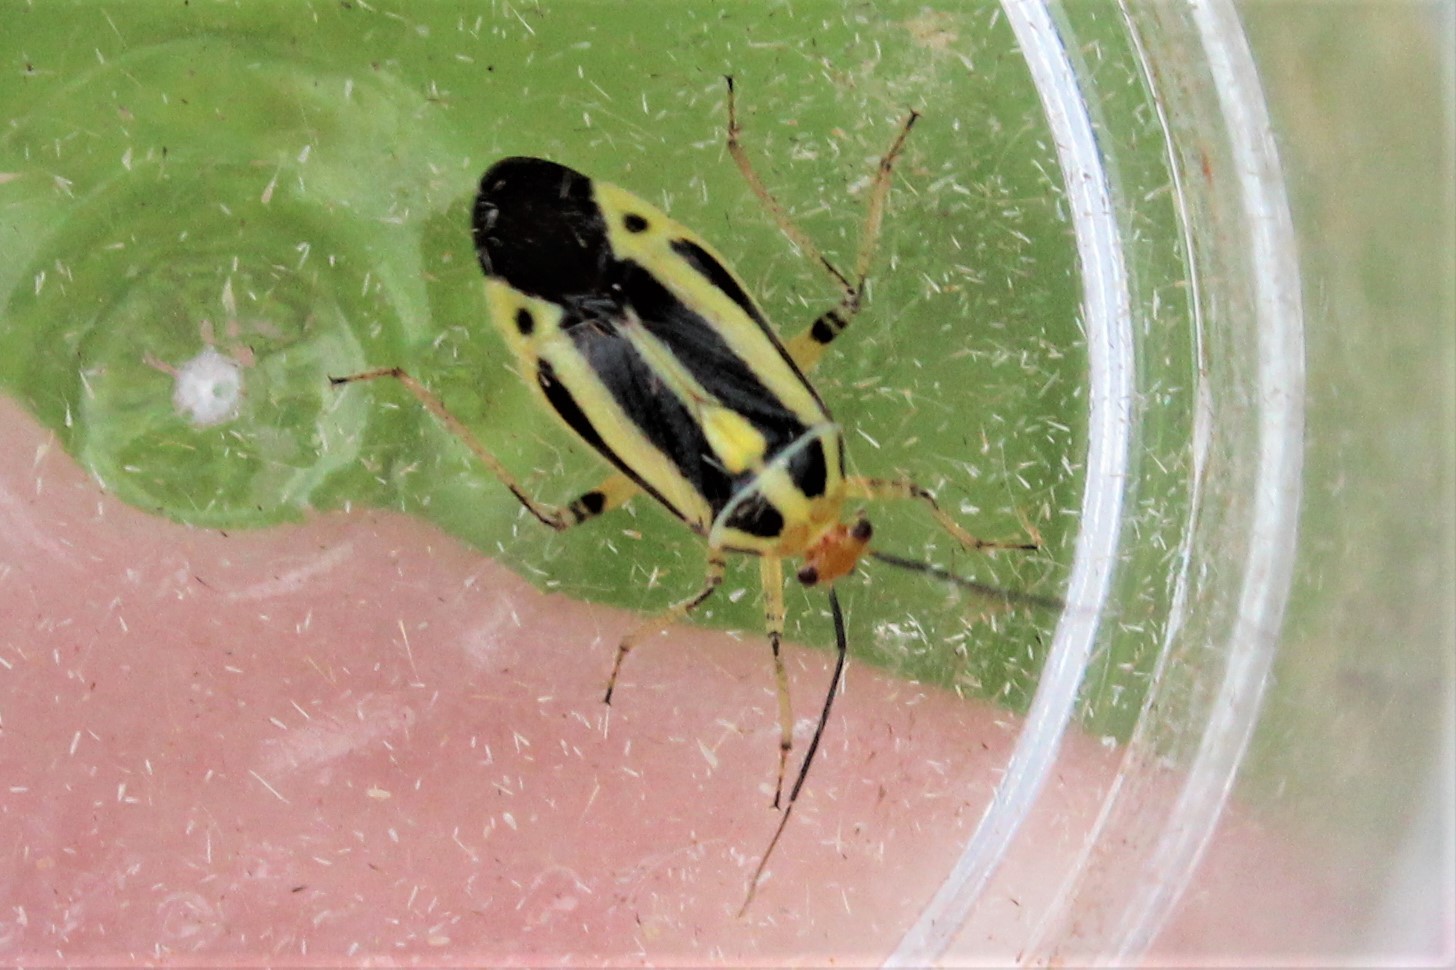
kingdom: Animalia
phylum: Arthropoda
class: Insecta
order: Hemiptera
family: Miridae
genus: Poecilocapsus
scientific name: Poecilocapsus lineatus
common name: Four-lined plant bug
